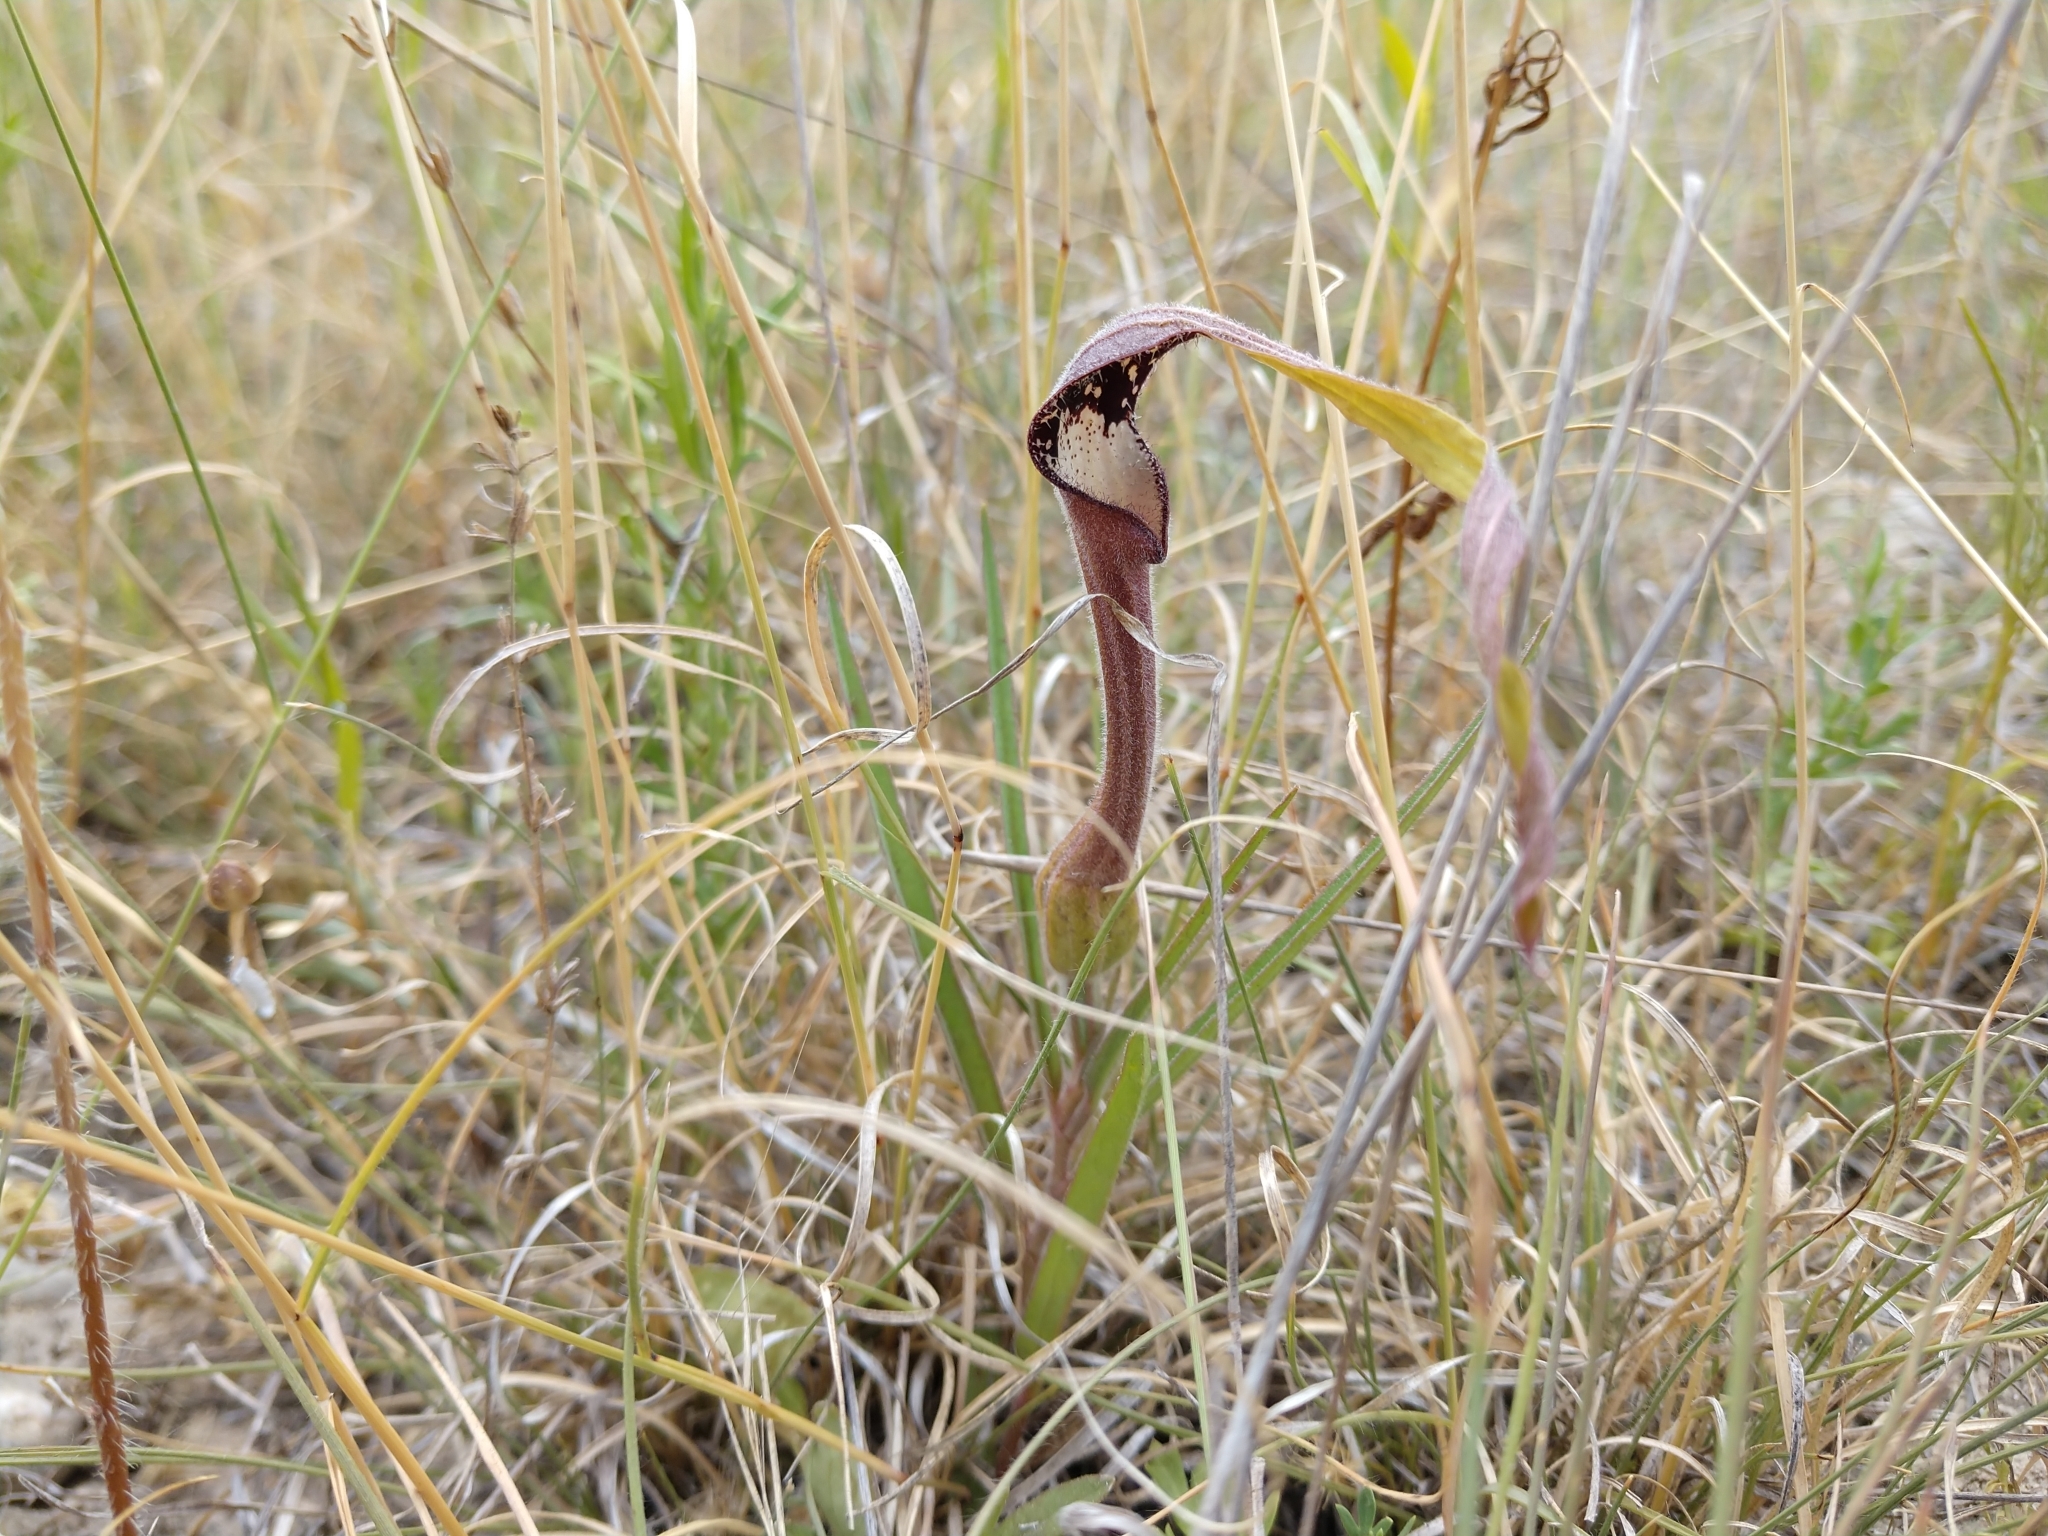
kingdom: Plantae
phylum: Tracheophyta
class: Magnoliopsida
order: Piperales
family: Aristolochiaceae
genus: Aristolochia
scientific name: Aristolochia erecta
